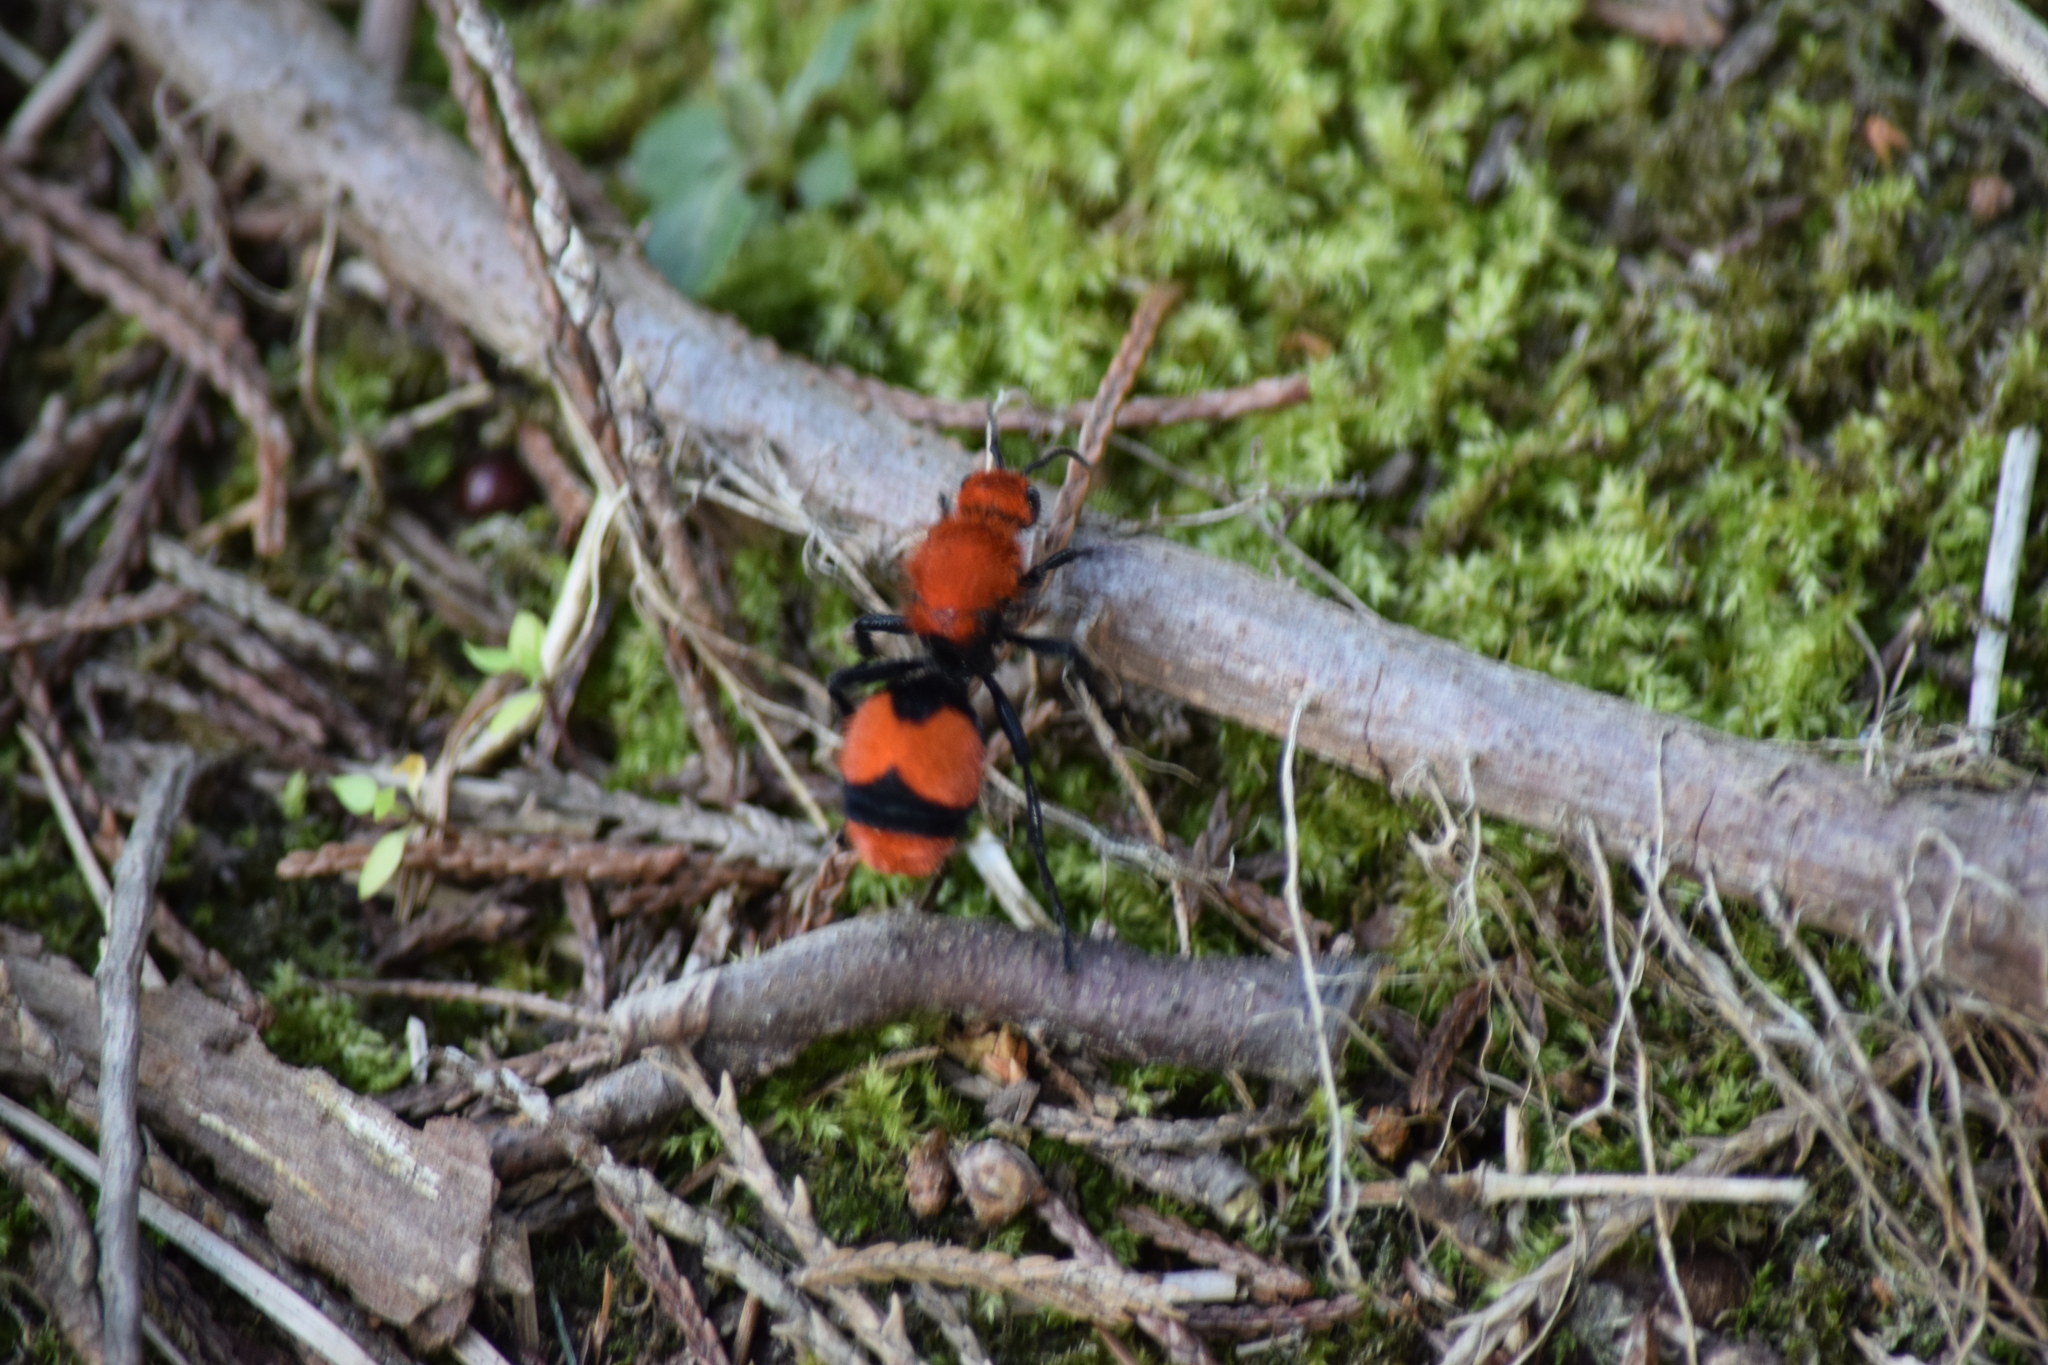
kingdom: Animalia
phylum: Arthropoda
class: Insecta
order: Hymenoptera
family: Mutillidae
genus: Dasymutilla
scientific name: Dasymutilla occidentalis
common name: Common eastern velvet ant
